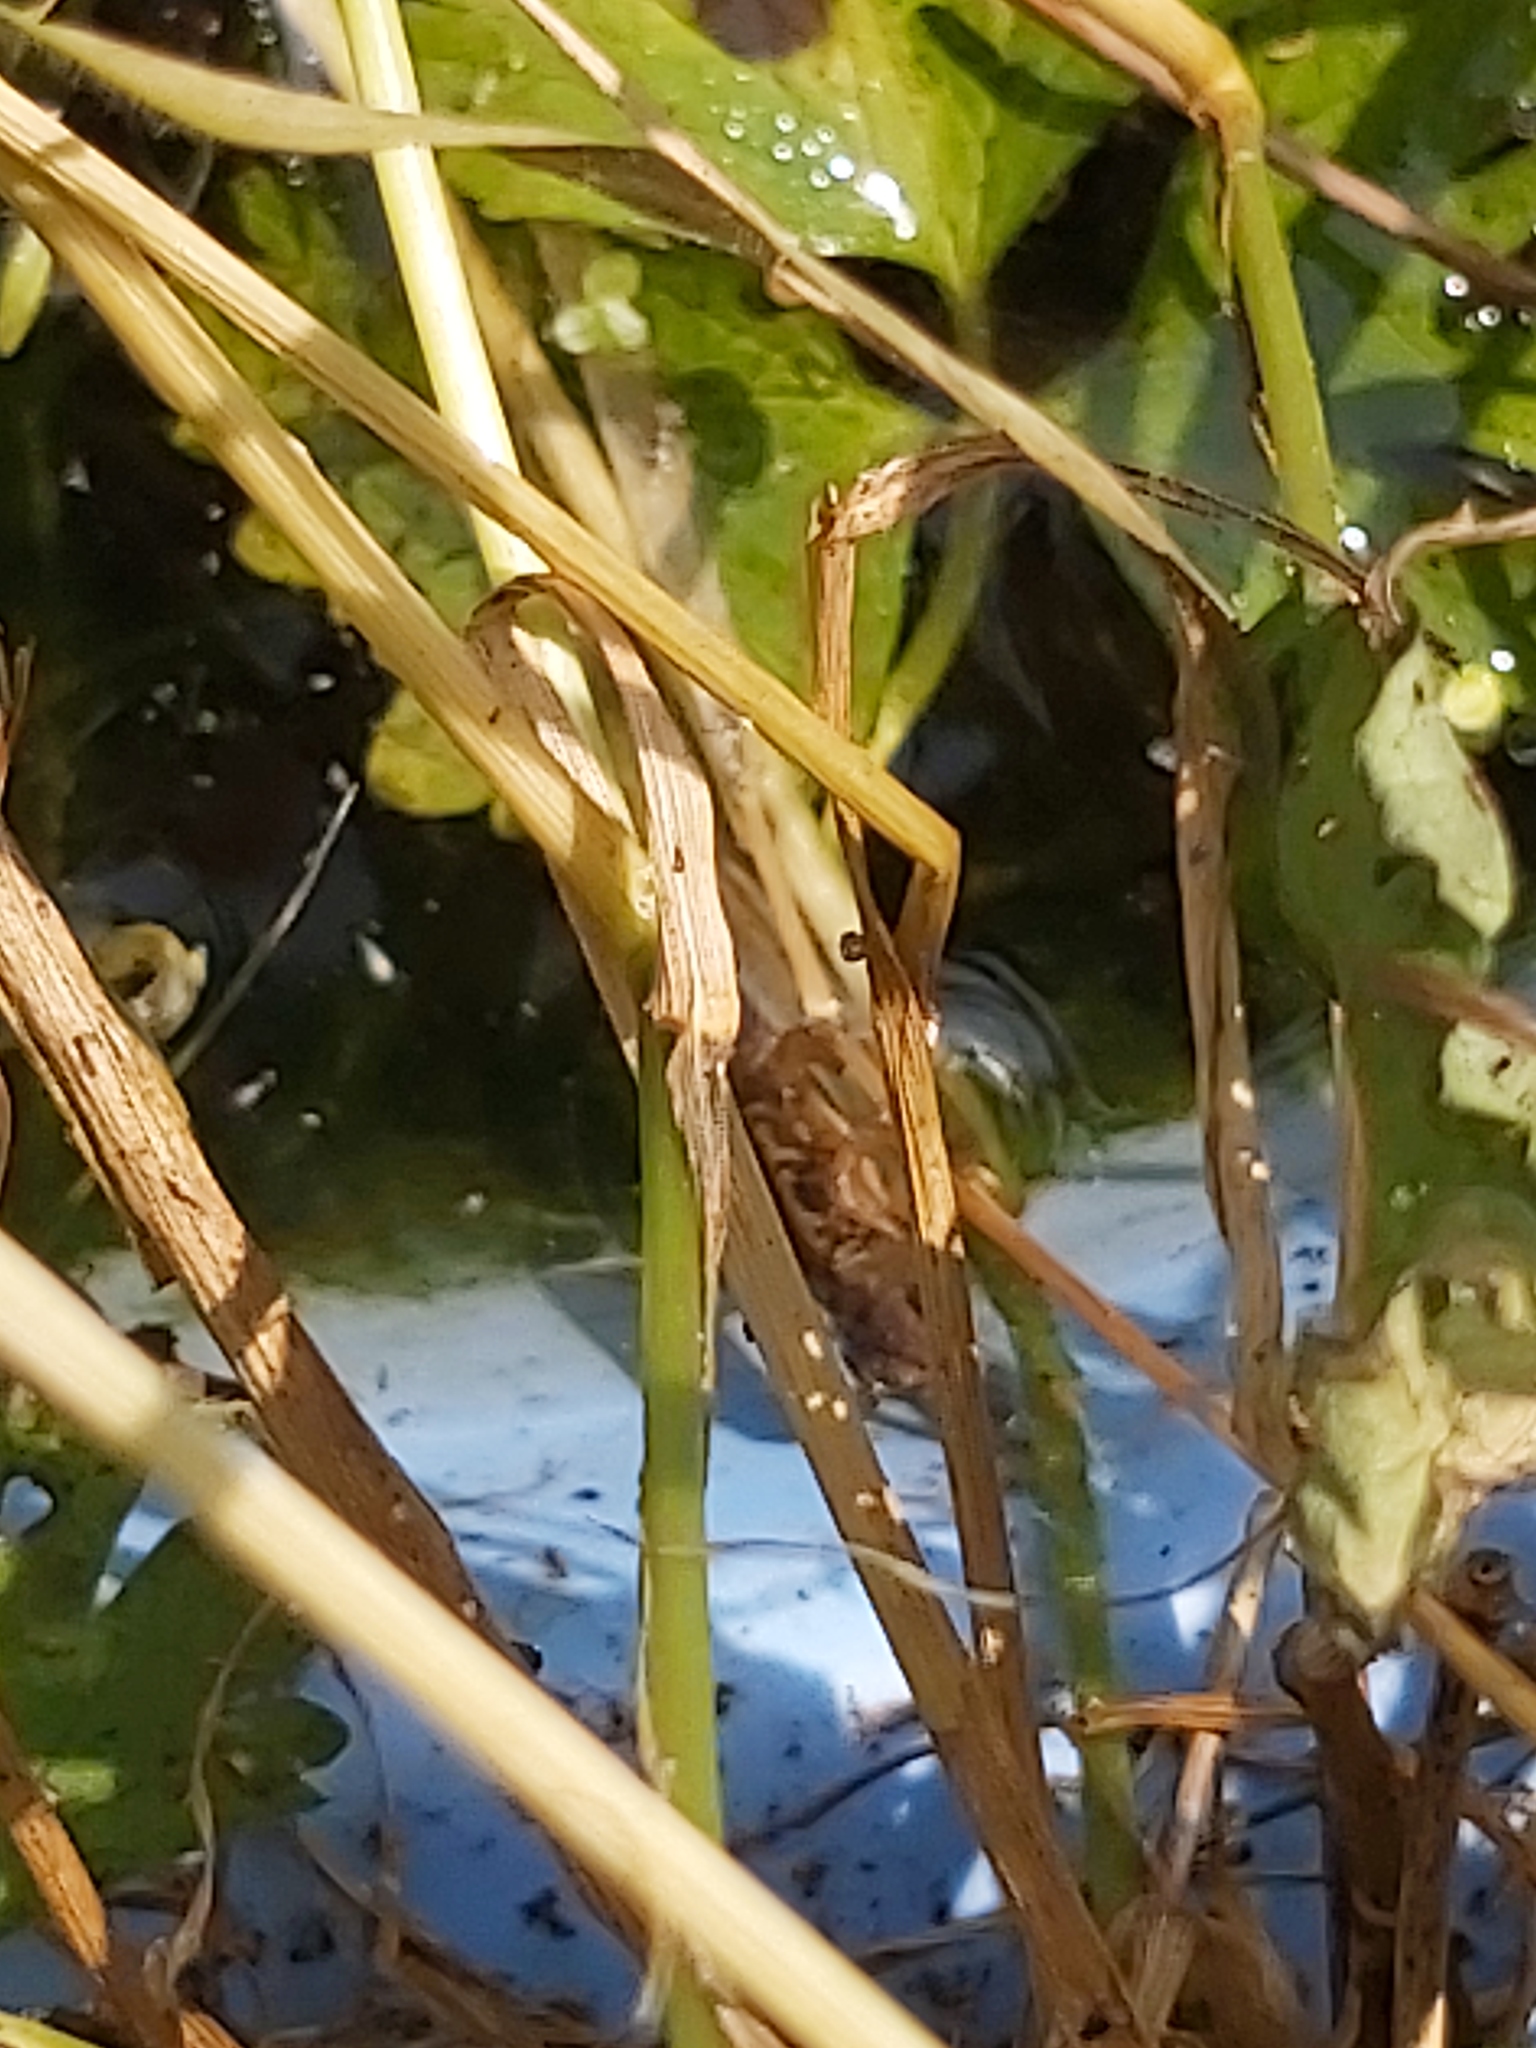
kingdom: Animalia
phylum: Chordata
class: Amphibia
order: Caudata
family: Salamandridae
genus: Lissotriton
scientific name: Lissotriton vulgaris
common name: Smooth newt
